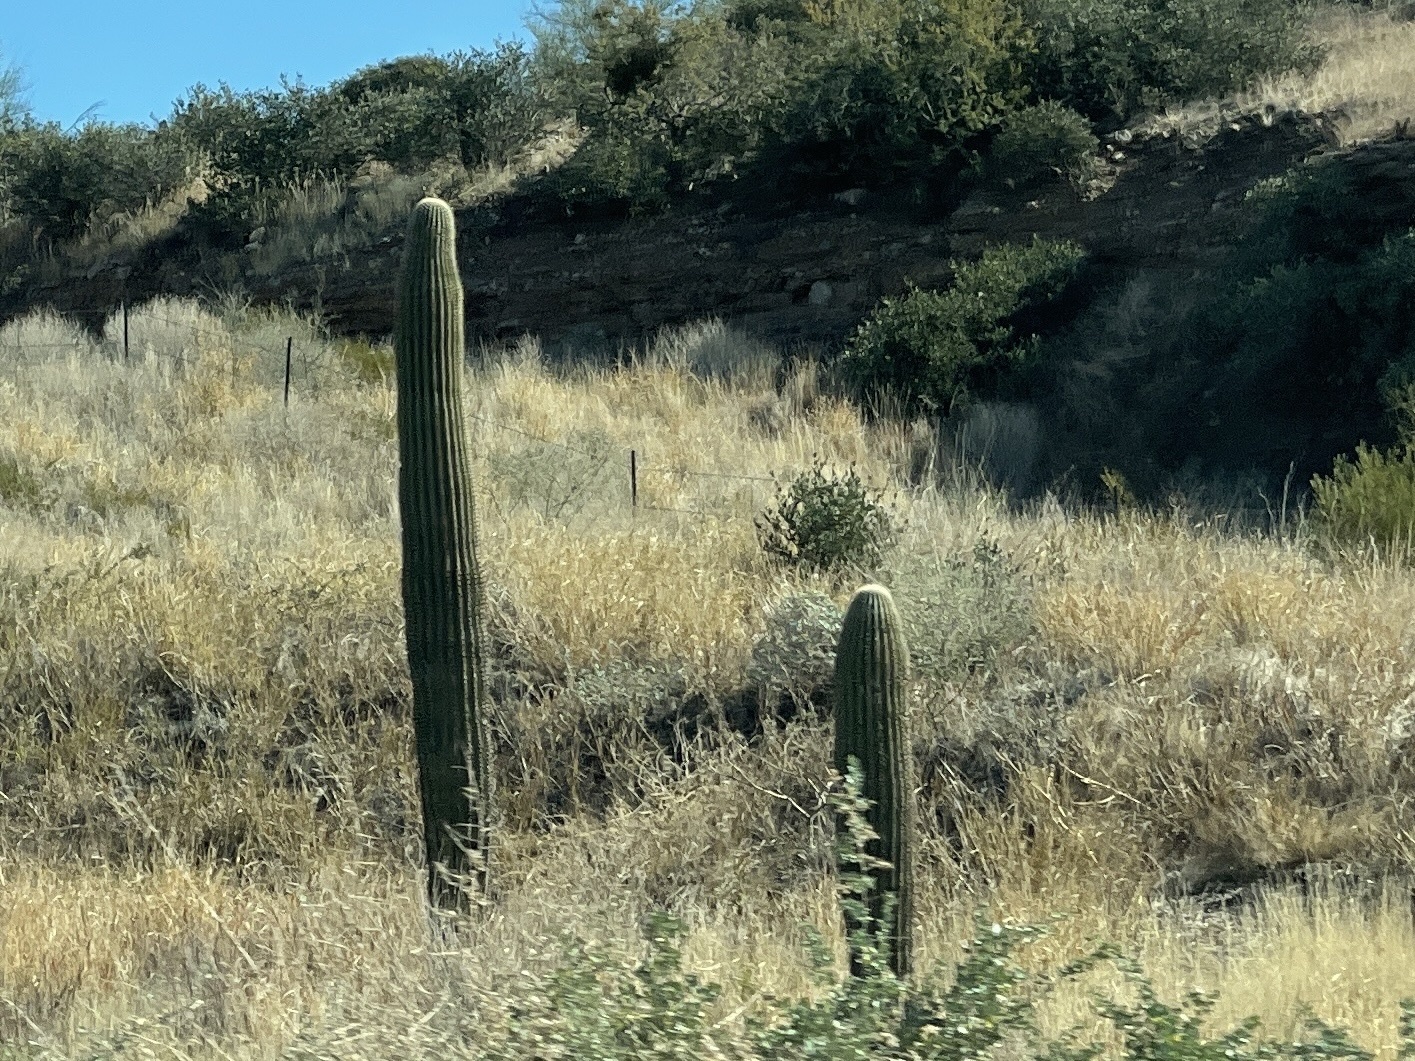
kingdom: Plantae
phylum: Tracheophyta
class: Magnoliopsida
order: Caryophyllales
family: Cactaceae
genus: Carnegiea
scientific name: Carnegiea gigantea
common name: Saguaro
